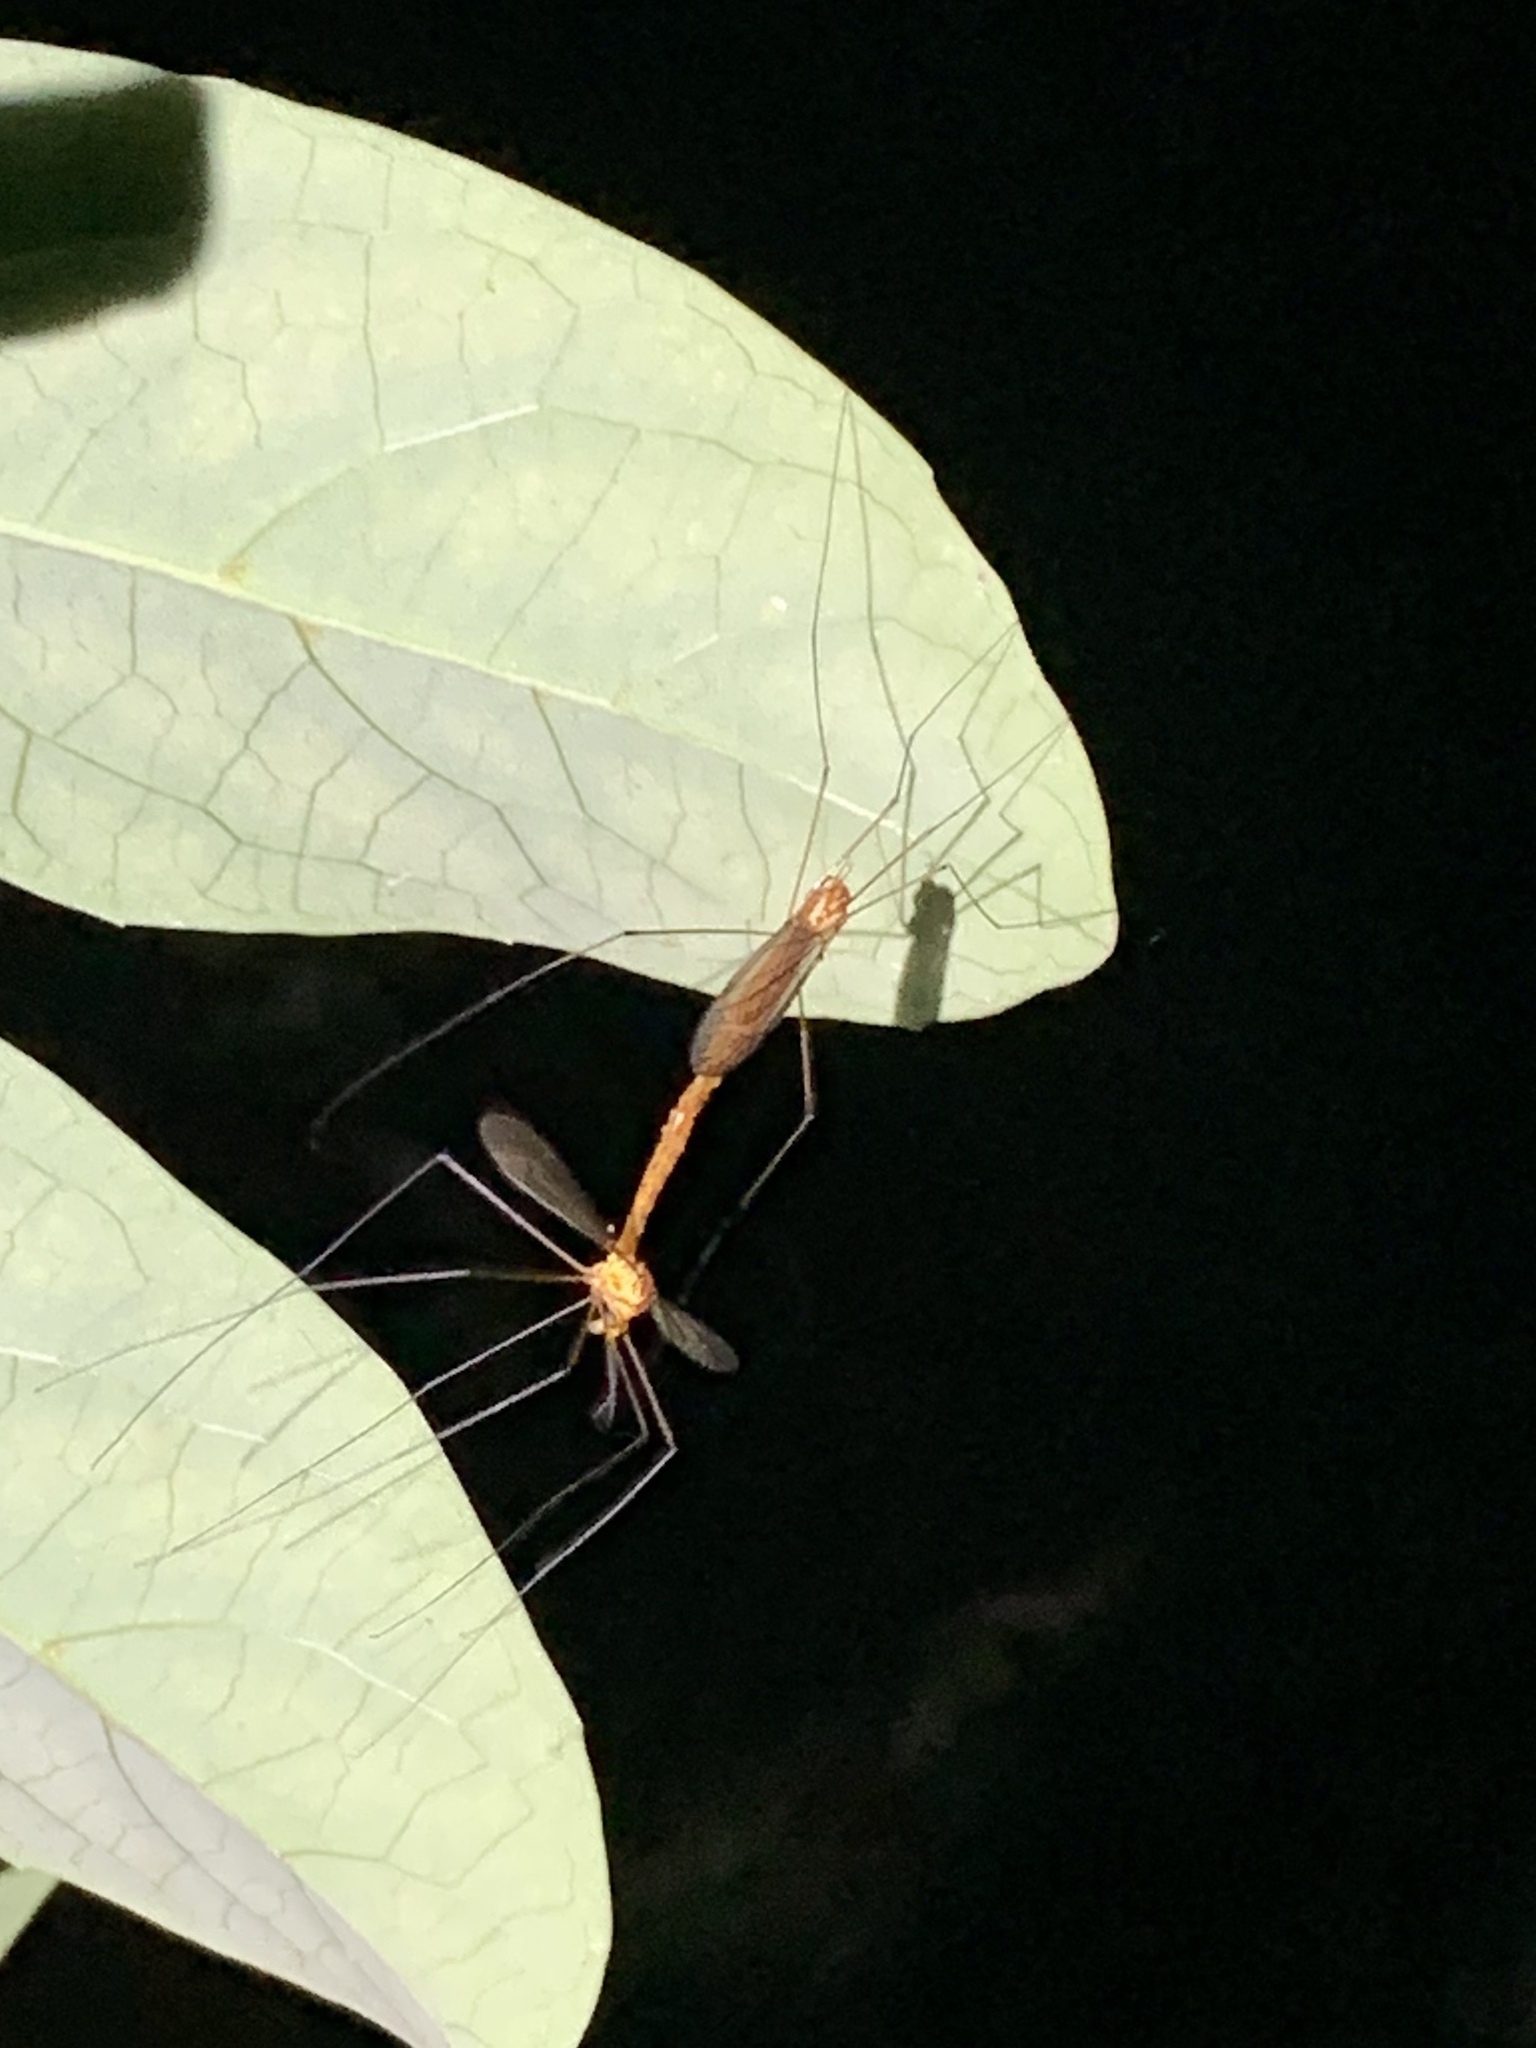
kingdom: Animalia
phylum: Arthropoda
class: Insecta
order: Diptera
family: Tipulidae
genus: Nephrotoma
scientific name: Nephrotoma
